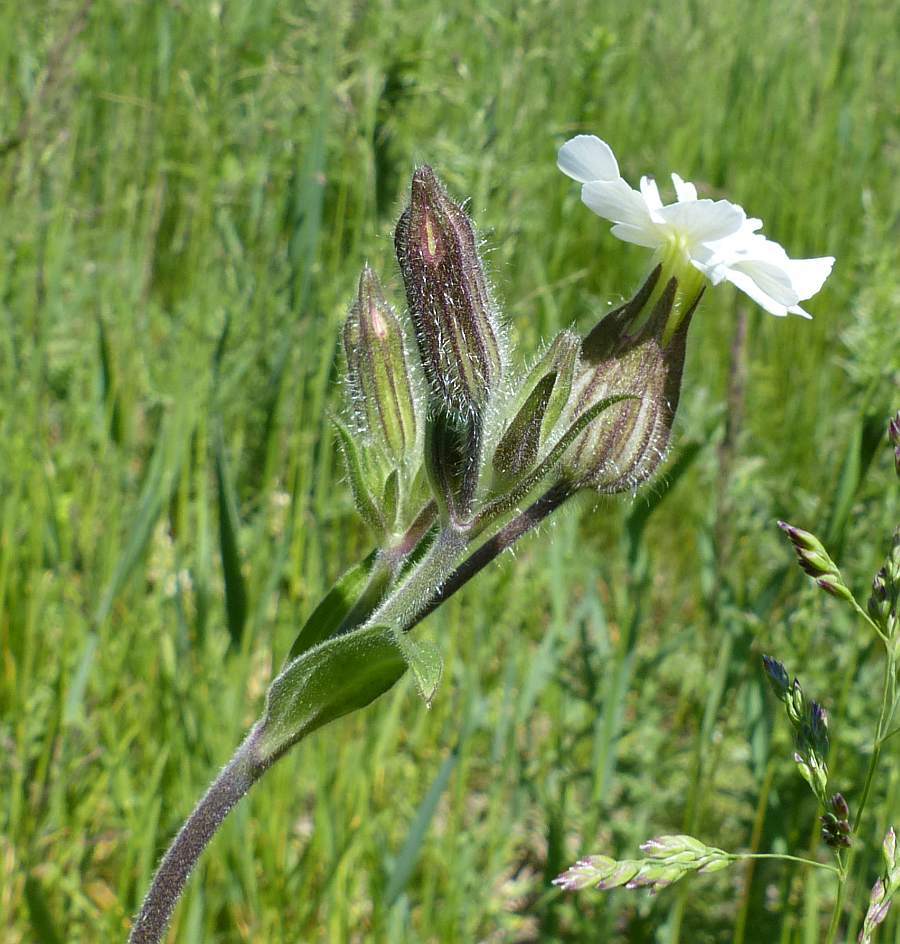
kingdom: Plantae
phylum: Tracheophyta
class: Magnoliopsida
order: Caryophyllales
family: Caryophyllaceae
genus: Silene
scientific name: Silene latifolia
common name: White campion
